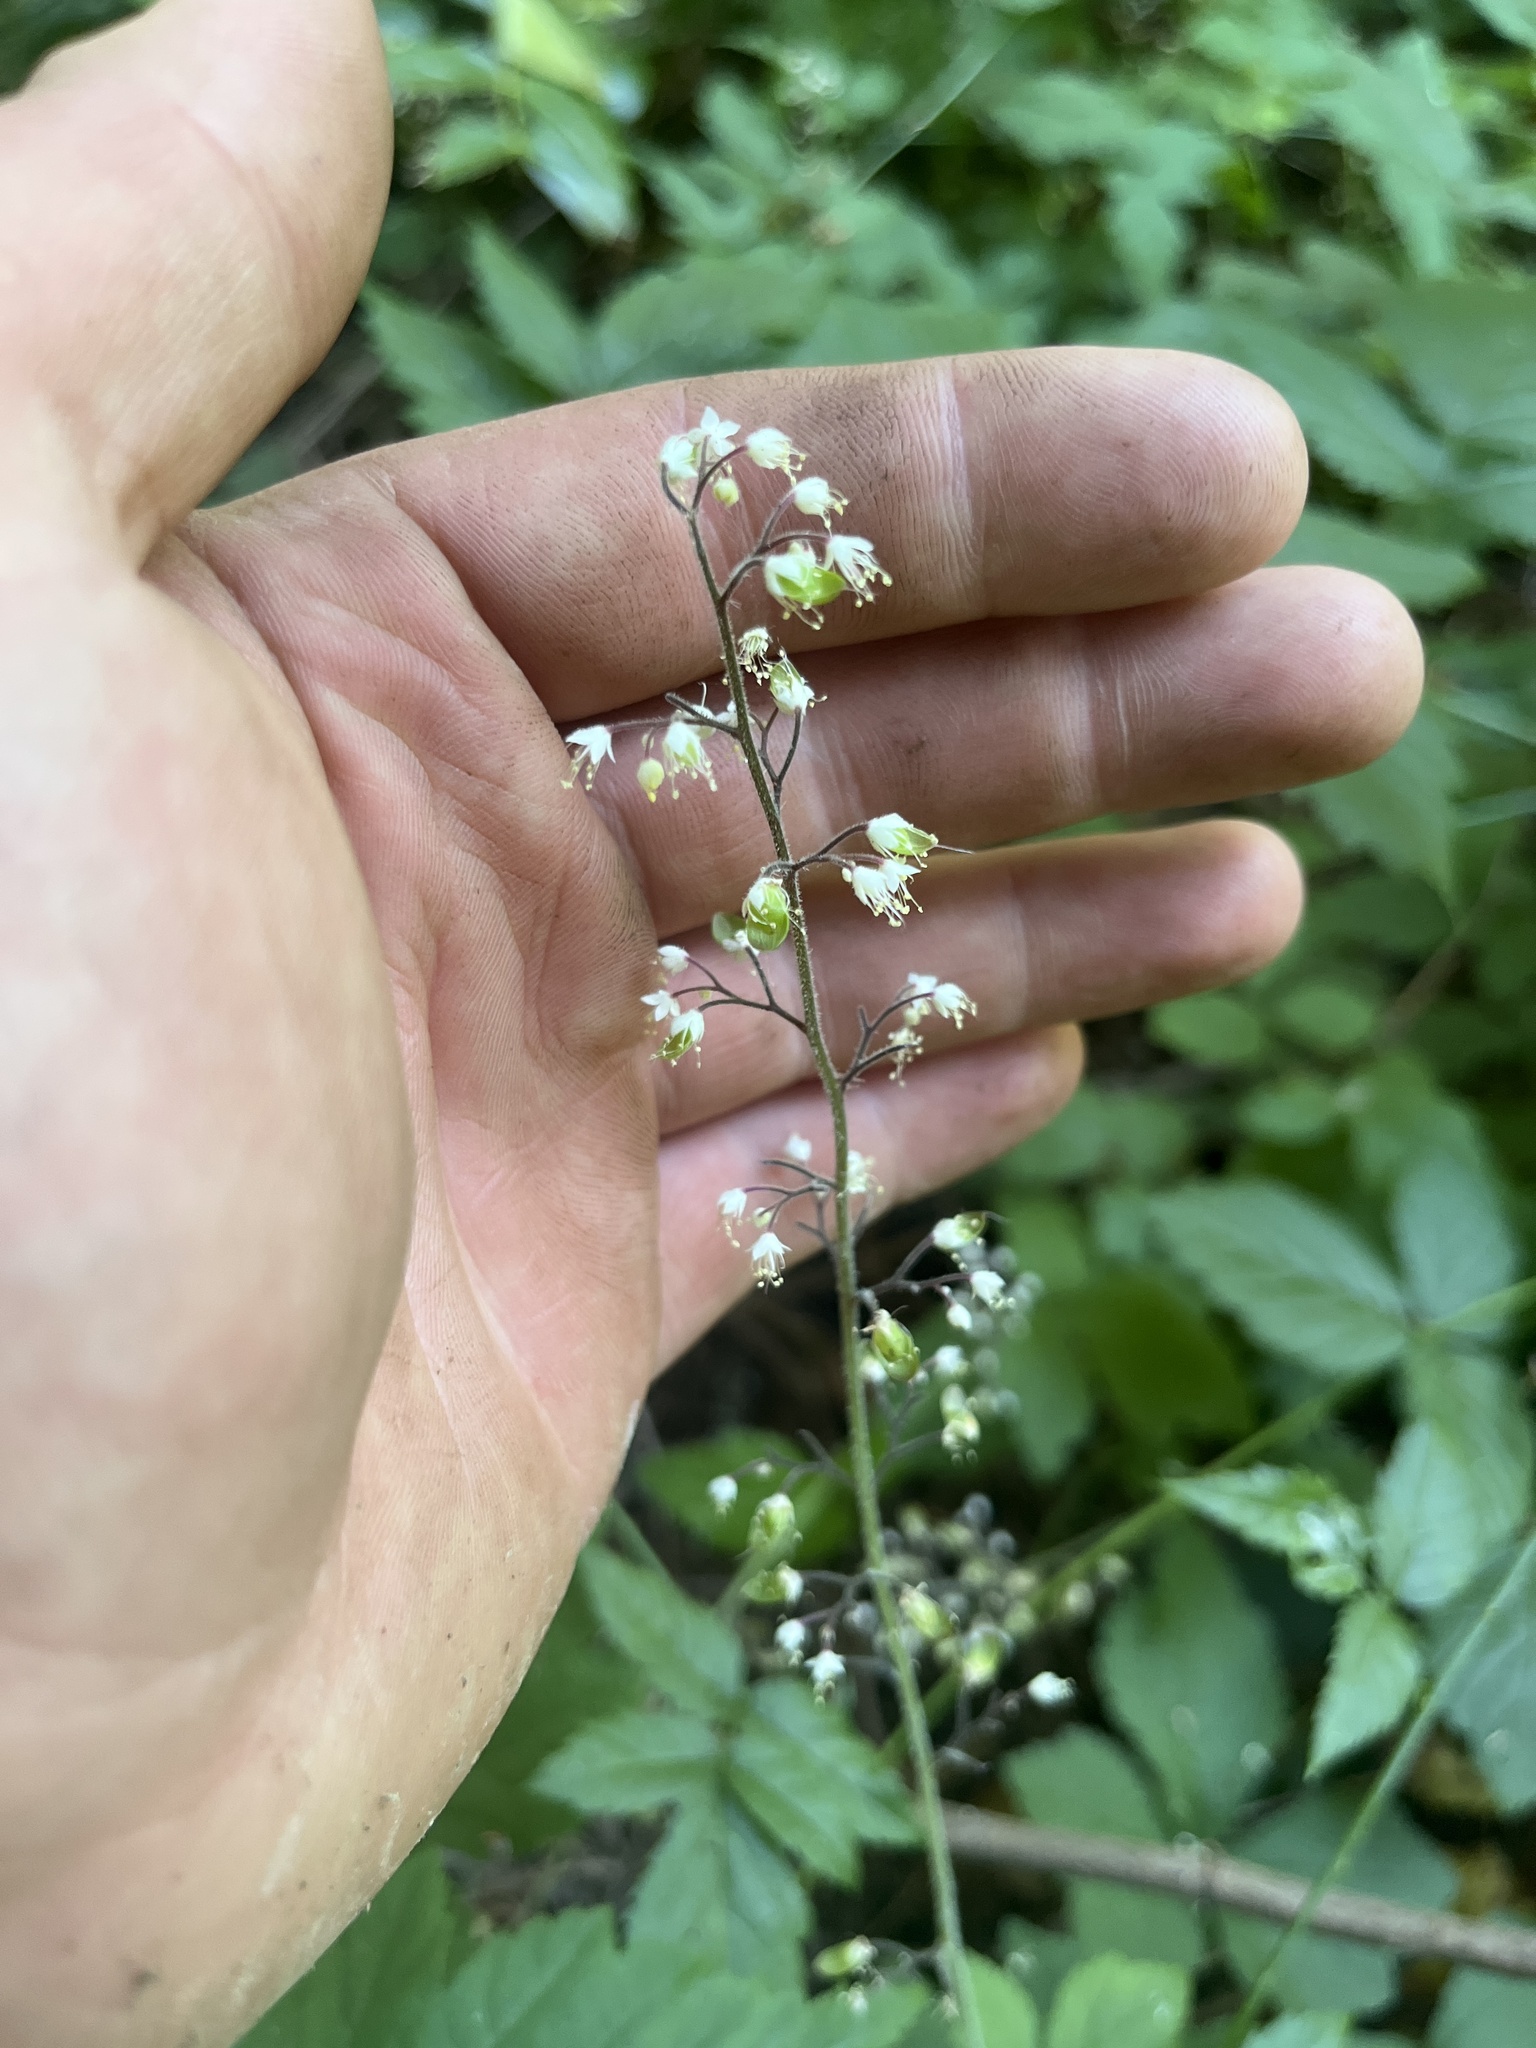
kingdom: Plantae
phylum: Tracheophyta
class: Magnoliopsida
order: Saxifragales
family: Saxifragaceae
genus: Tiarella
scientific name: Tiarella trifoliata
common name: Sugar-scoop
